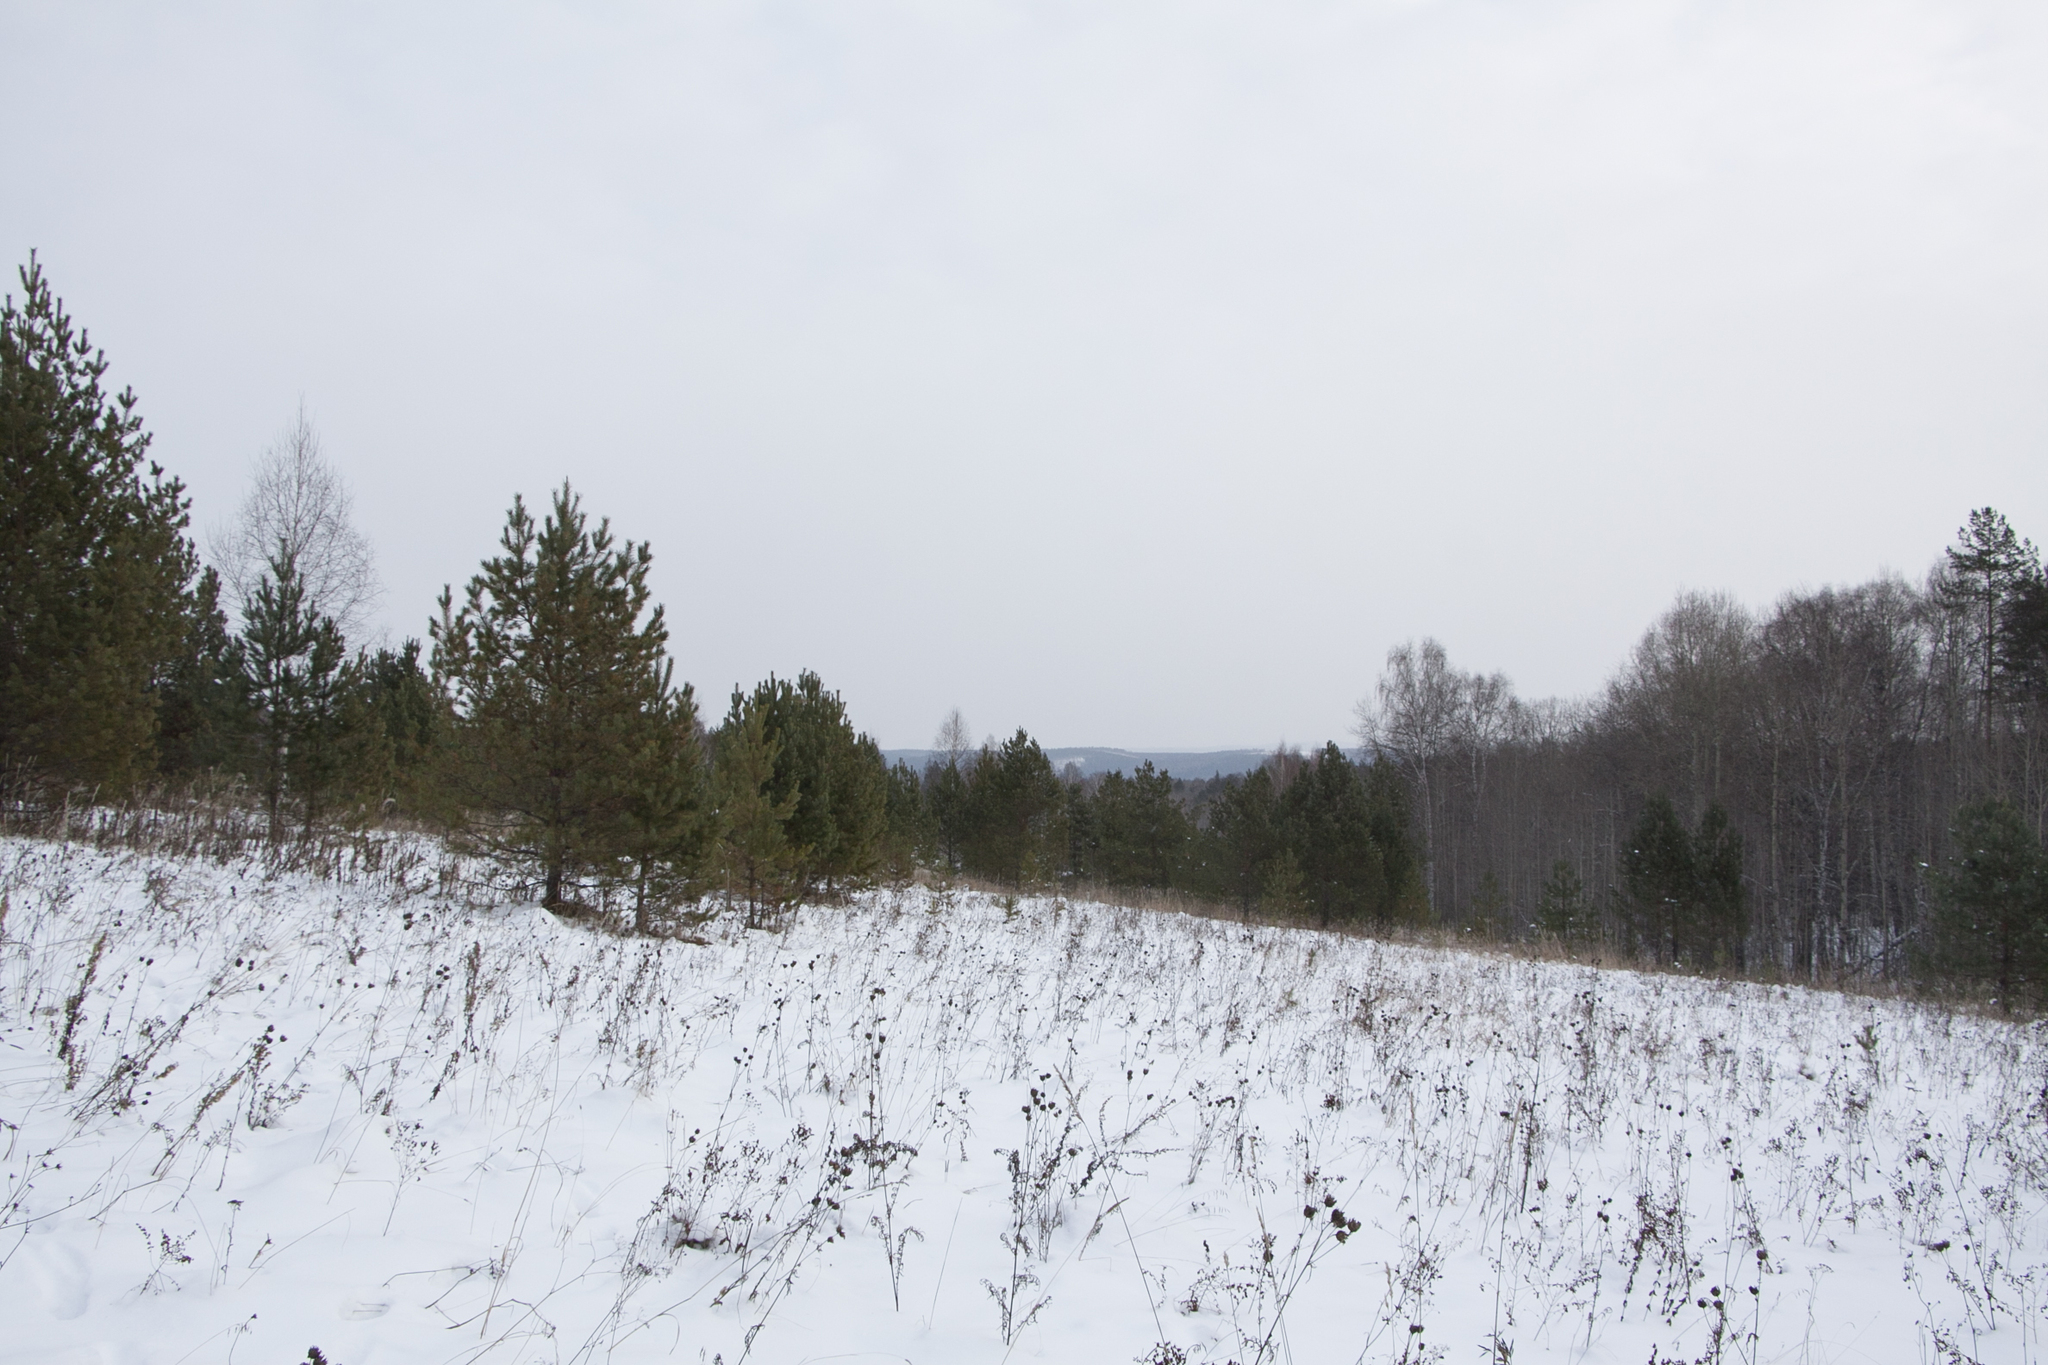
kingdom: Plantae
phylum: Tracheophyta
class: Pinopsida
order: Pinales
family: Pinaceae
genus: Pinus
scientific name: Pinus sylvestris
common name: Scots pine
